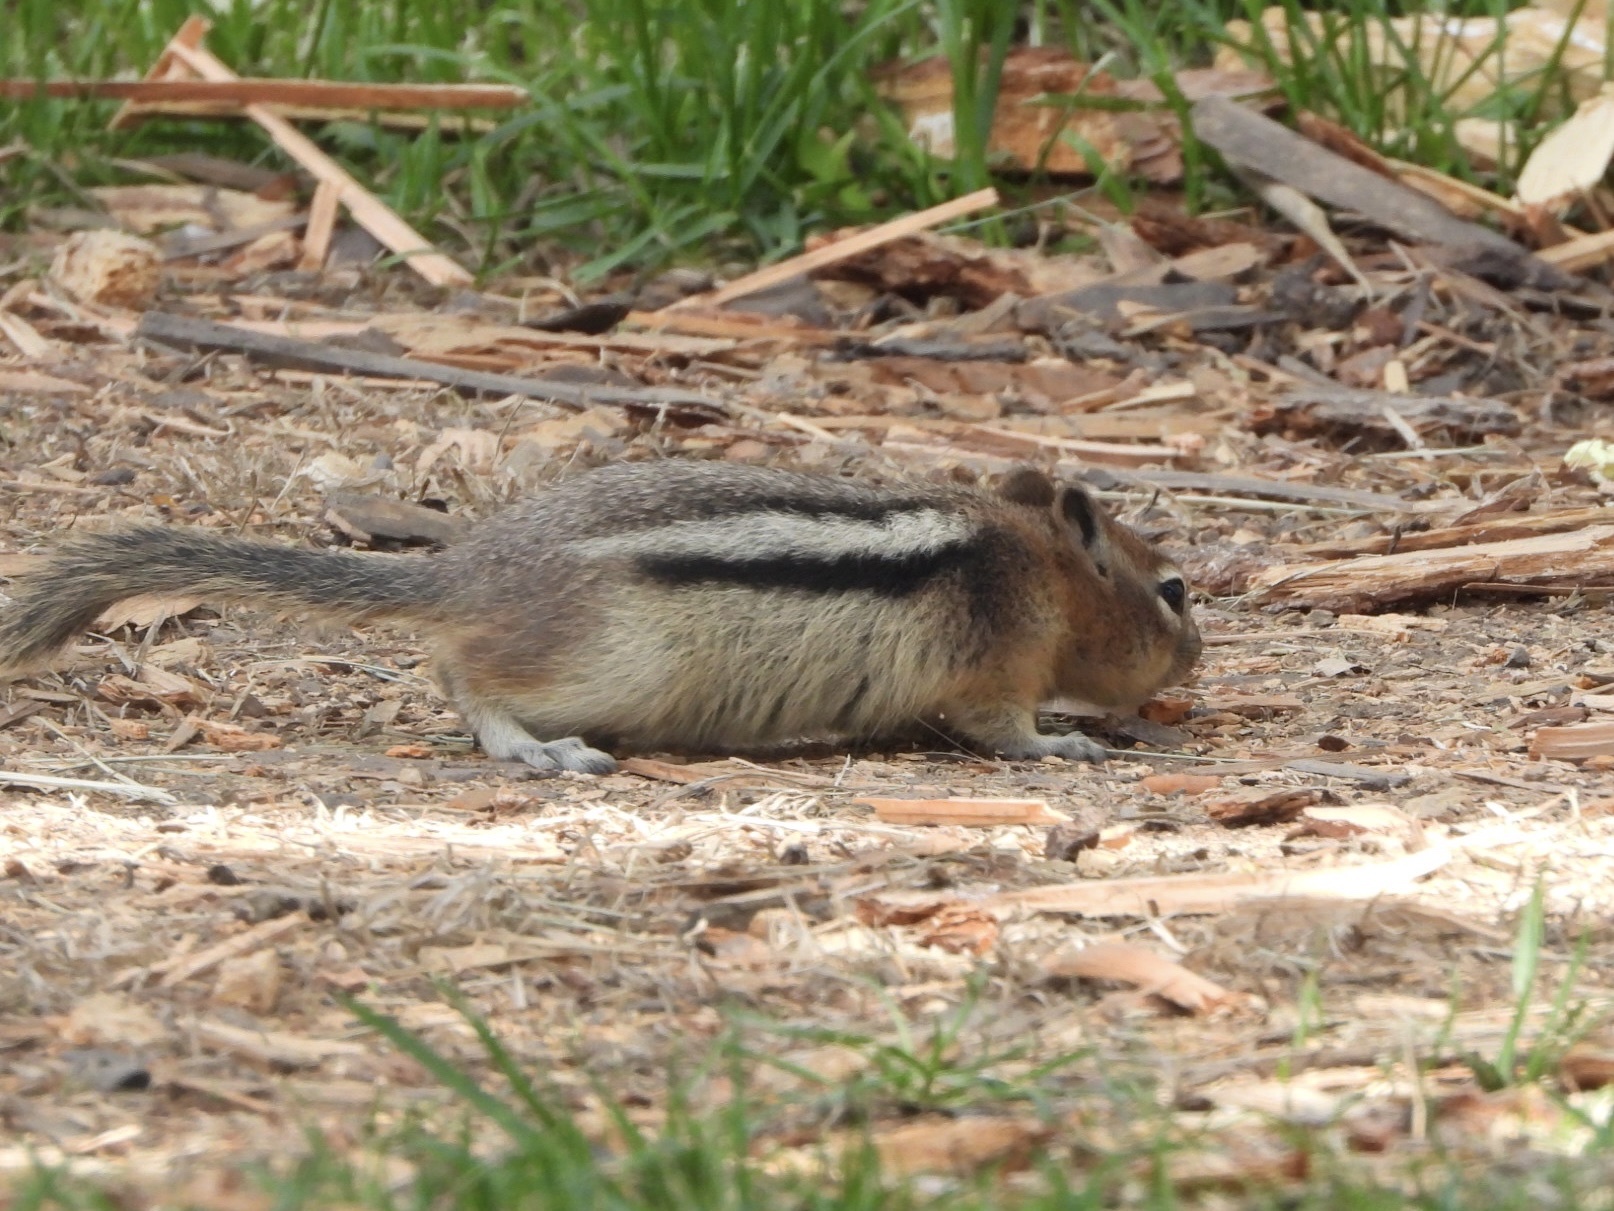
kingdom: Animalia
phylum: Chordata
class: Mammalia
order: Rodentia
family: Sciuridae
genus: Callospermophilus
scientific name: Callospermophilus lateralis
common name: Golden-mantled ground squirrel
